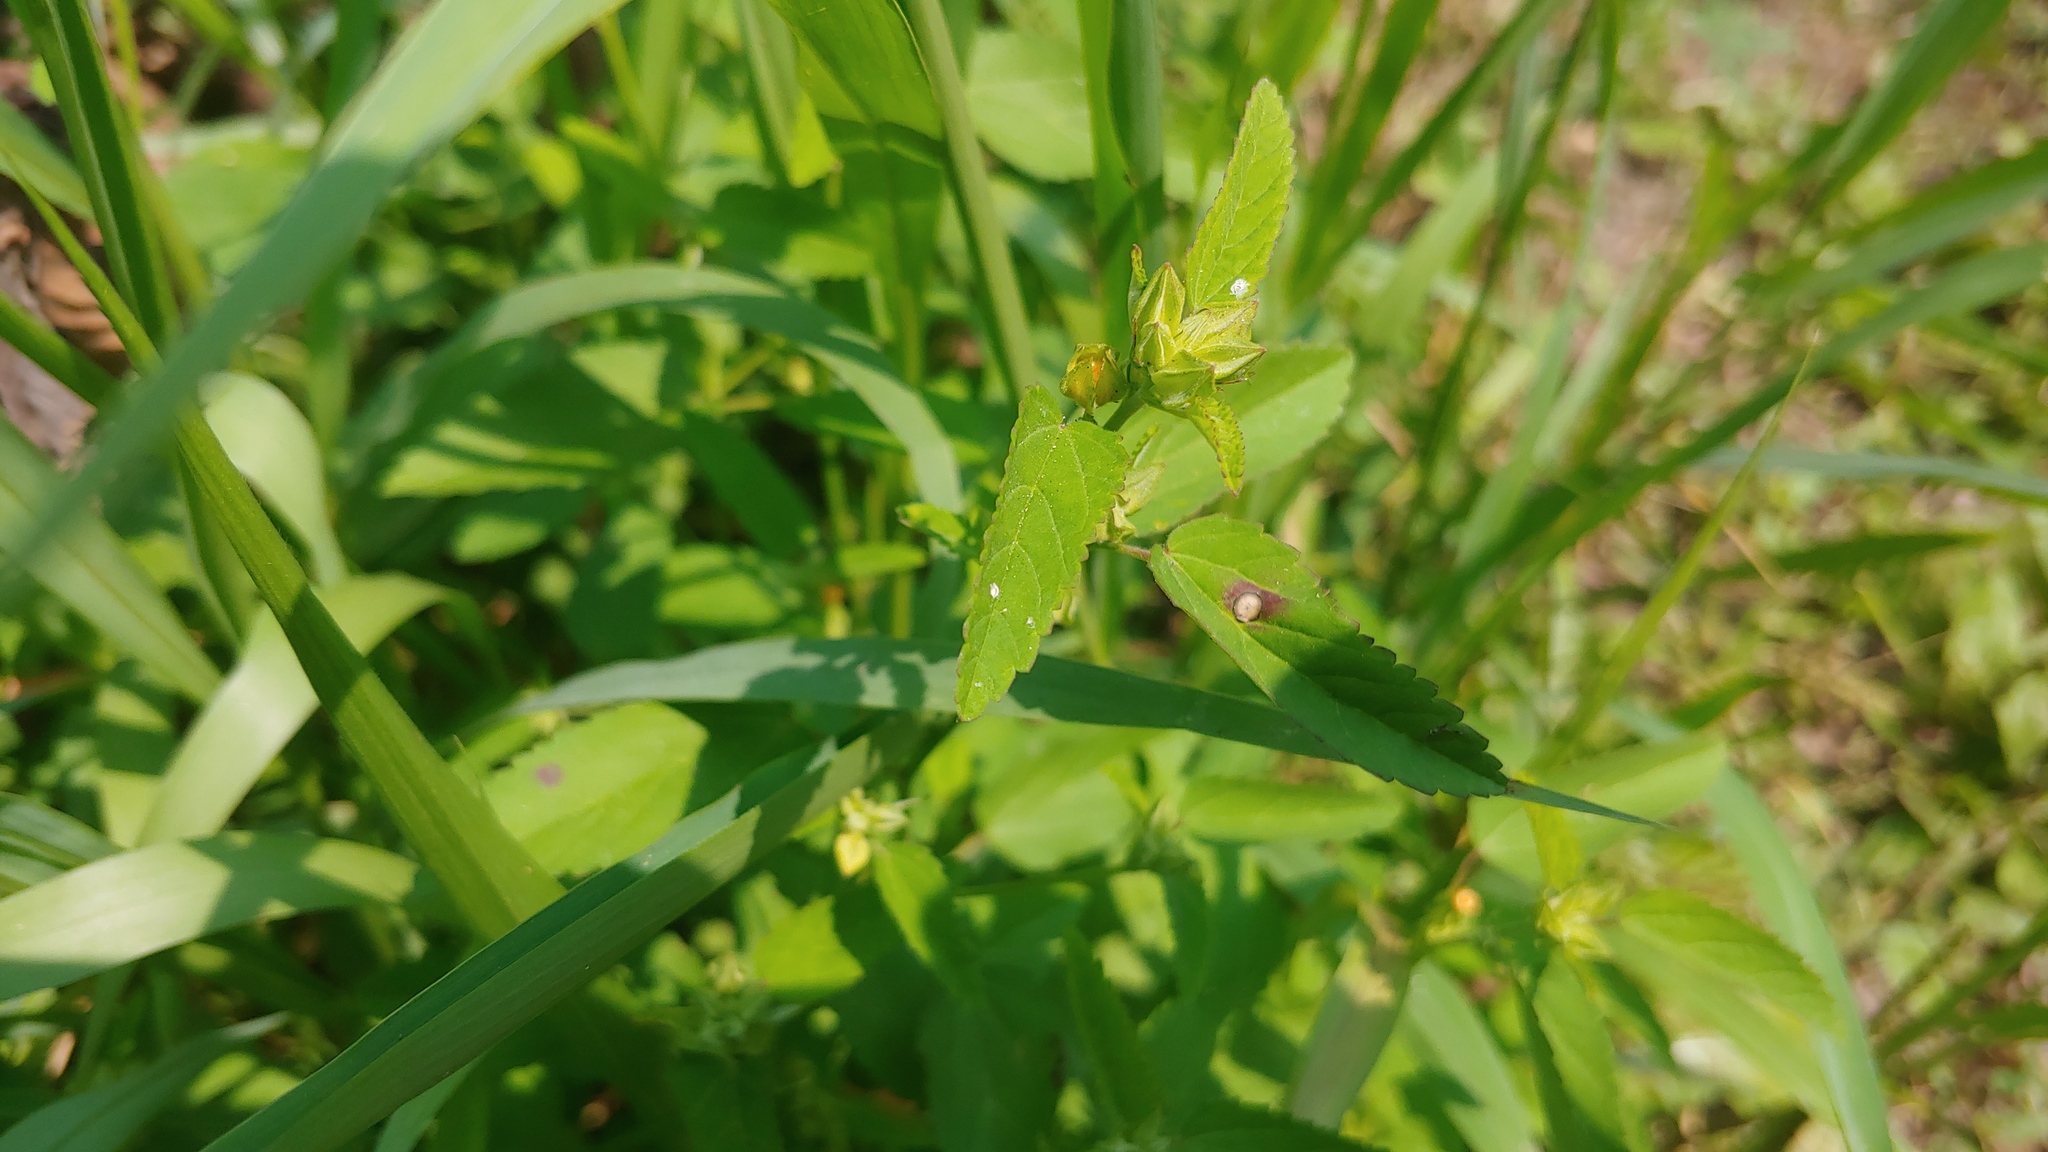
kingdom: Plantae
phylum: Tracheophyta
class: Magnoliopsida
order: Malvales
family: Malvaceae
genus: Sida
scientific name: Sida spinosa
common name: Prickly fanpetals
